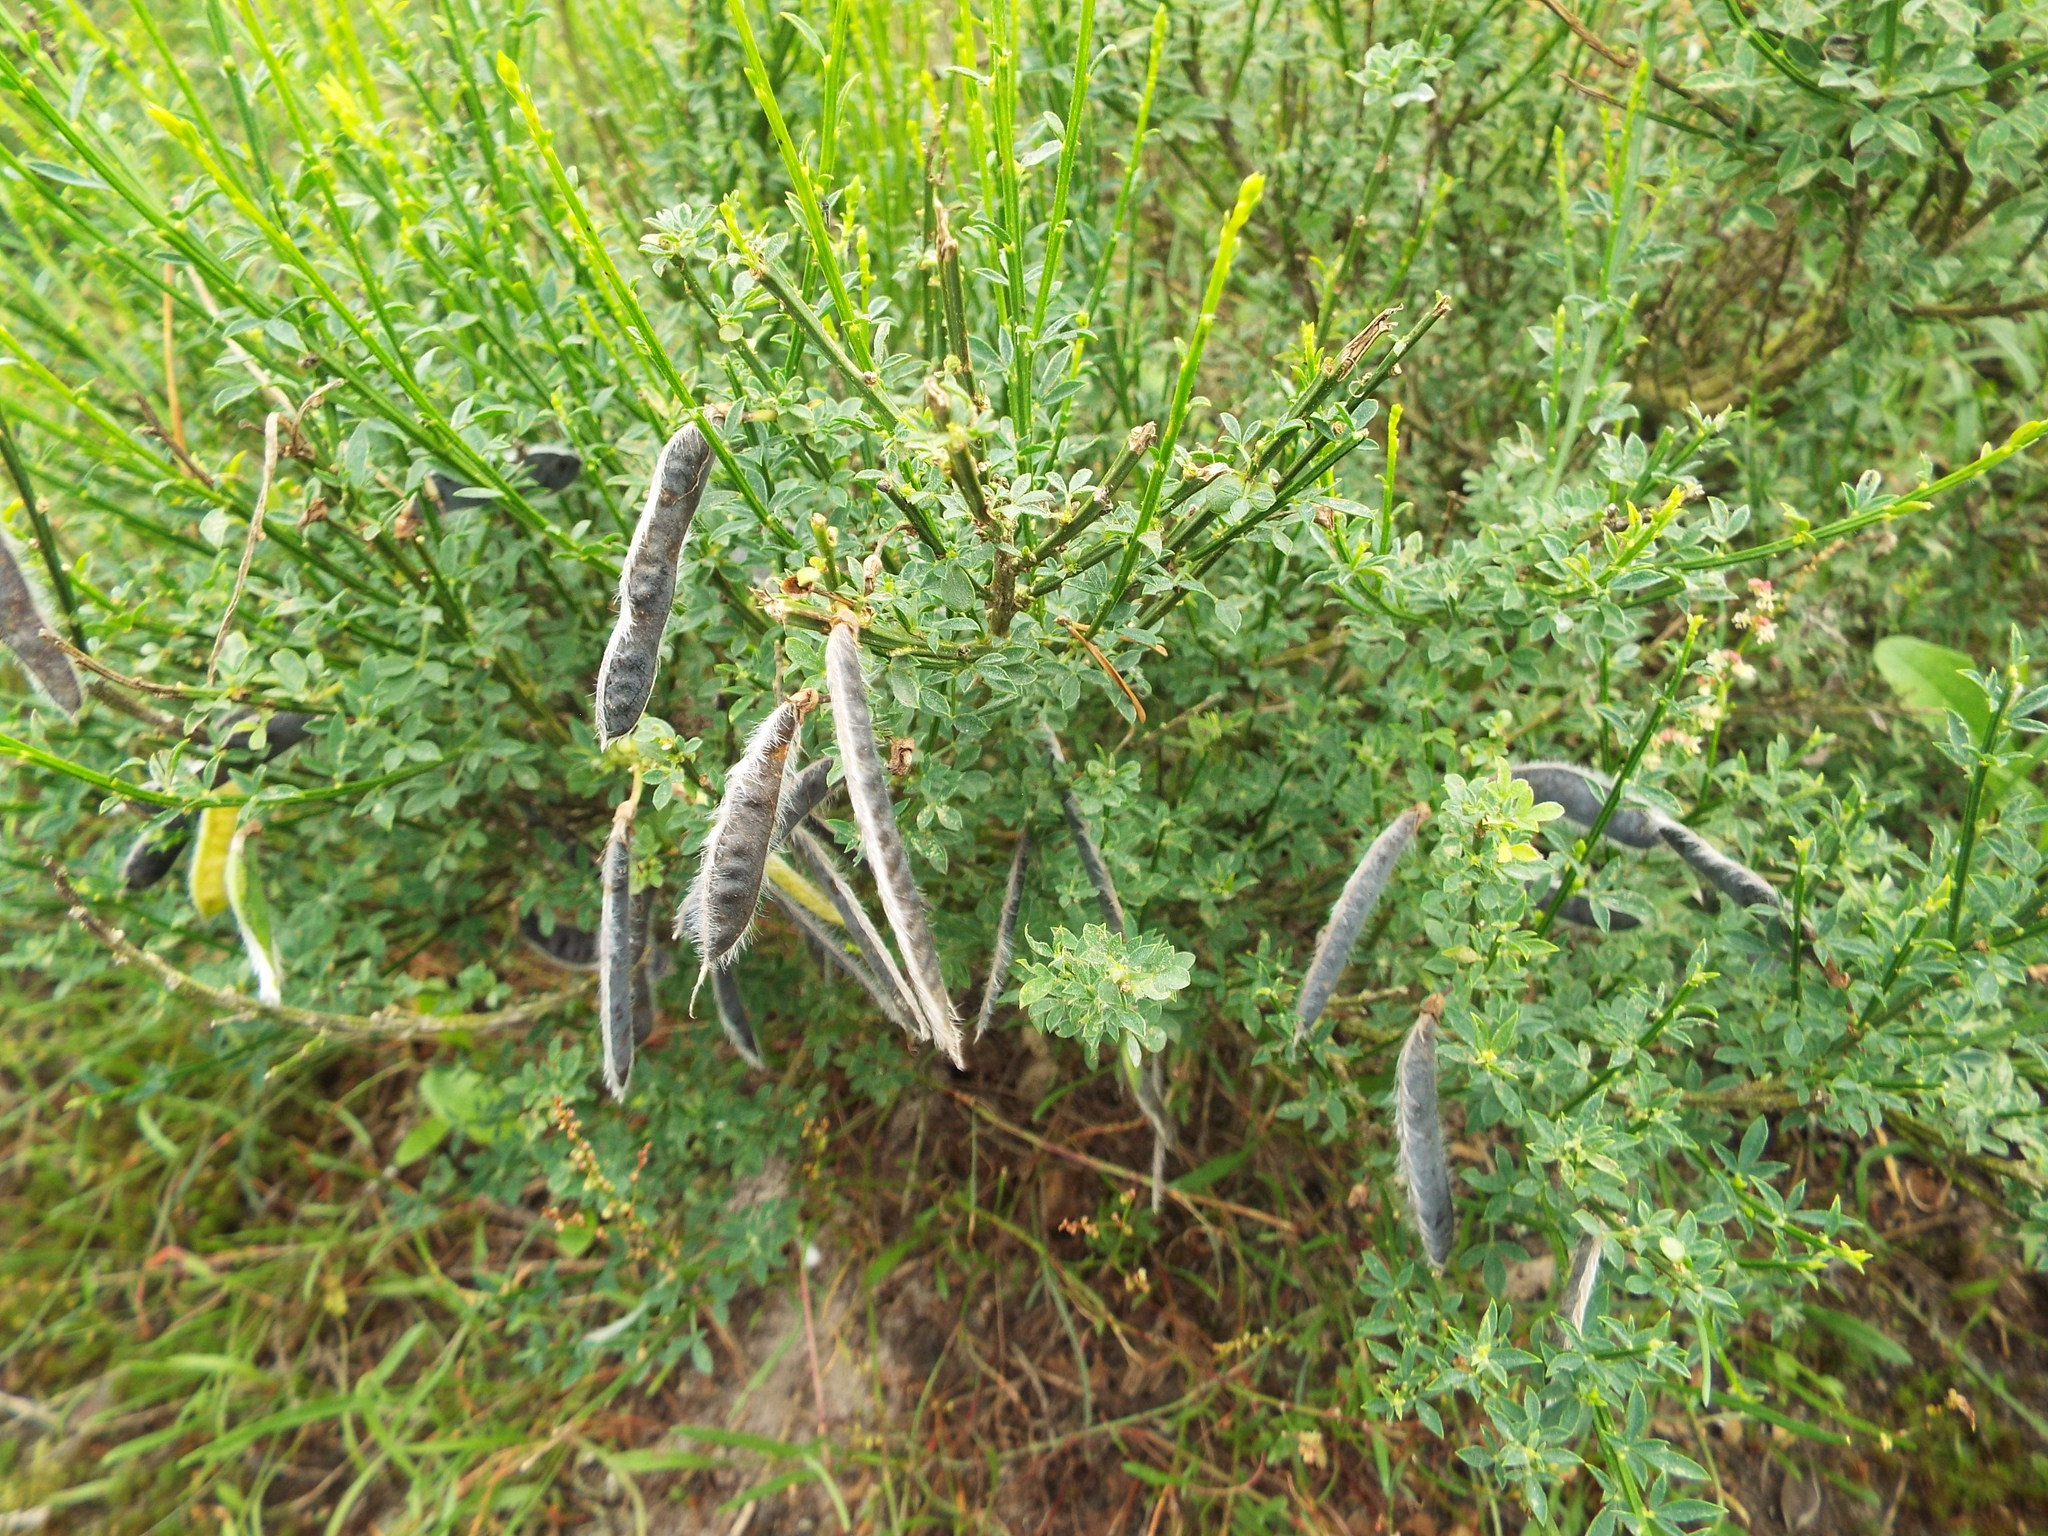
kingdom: Plantae
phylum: Tracheophyta
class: Magnoliopsida
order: Fabales
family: Fabaceae
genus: Cytisus
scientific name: Cytisus scoparius
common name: Scotch broom
